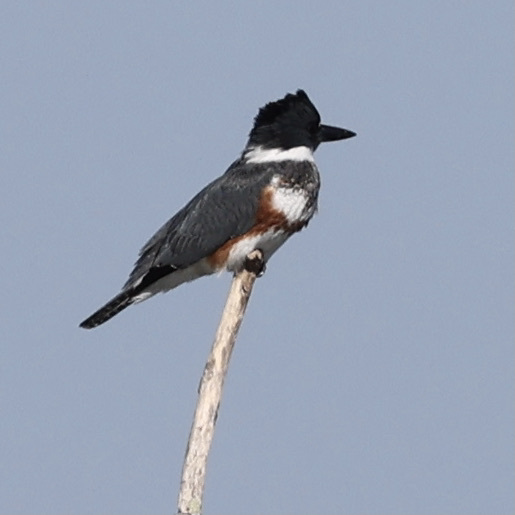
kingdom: Animalia
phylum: Chordata
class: Aves
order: Coraciiformes
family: Alcedinidae
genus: Megaceryle
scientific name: Megaceryle alcyon
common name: Belted kingfisher
